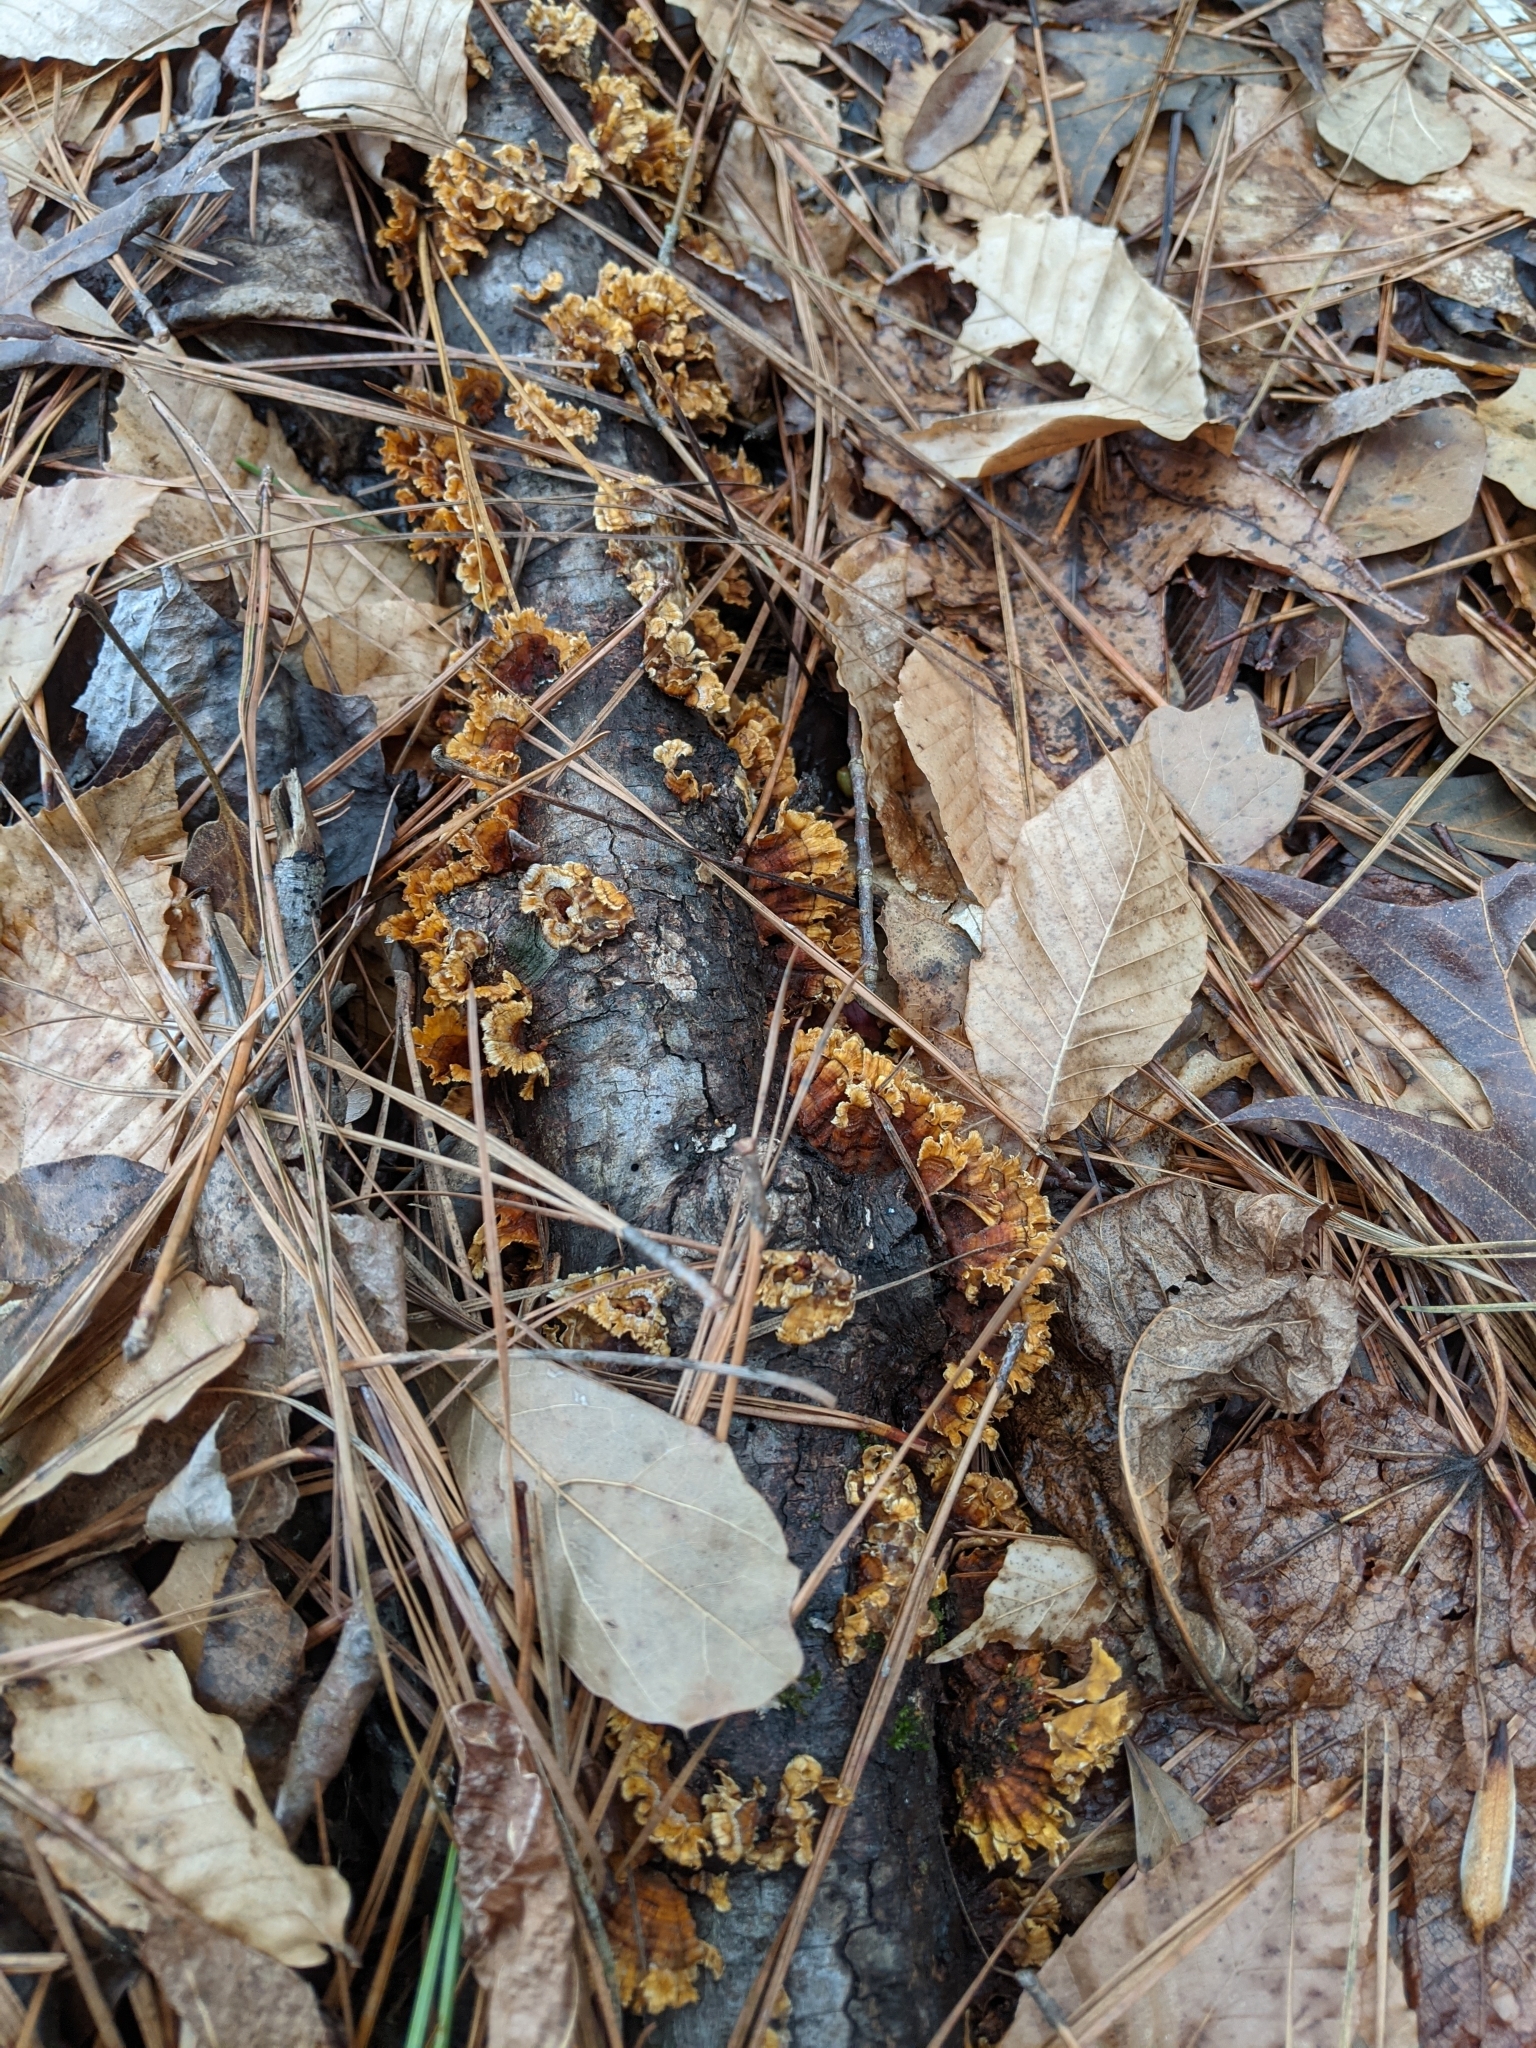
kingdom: Fungi
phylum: Basidiomycota
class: Agaricomycetes
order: Russulales
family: Stereaceae
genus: Stereum
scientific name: Stereum complicatum
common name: Crowded parchment
